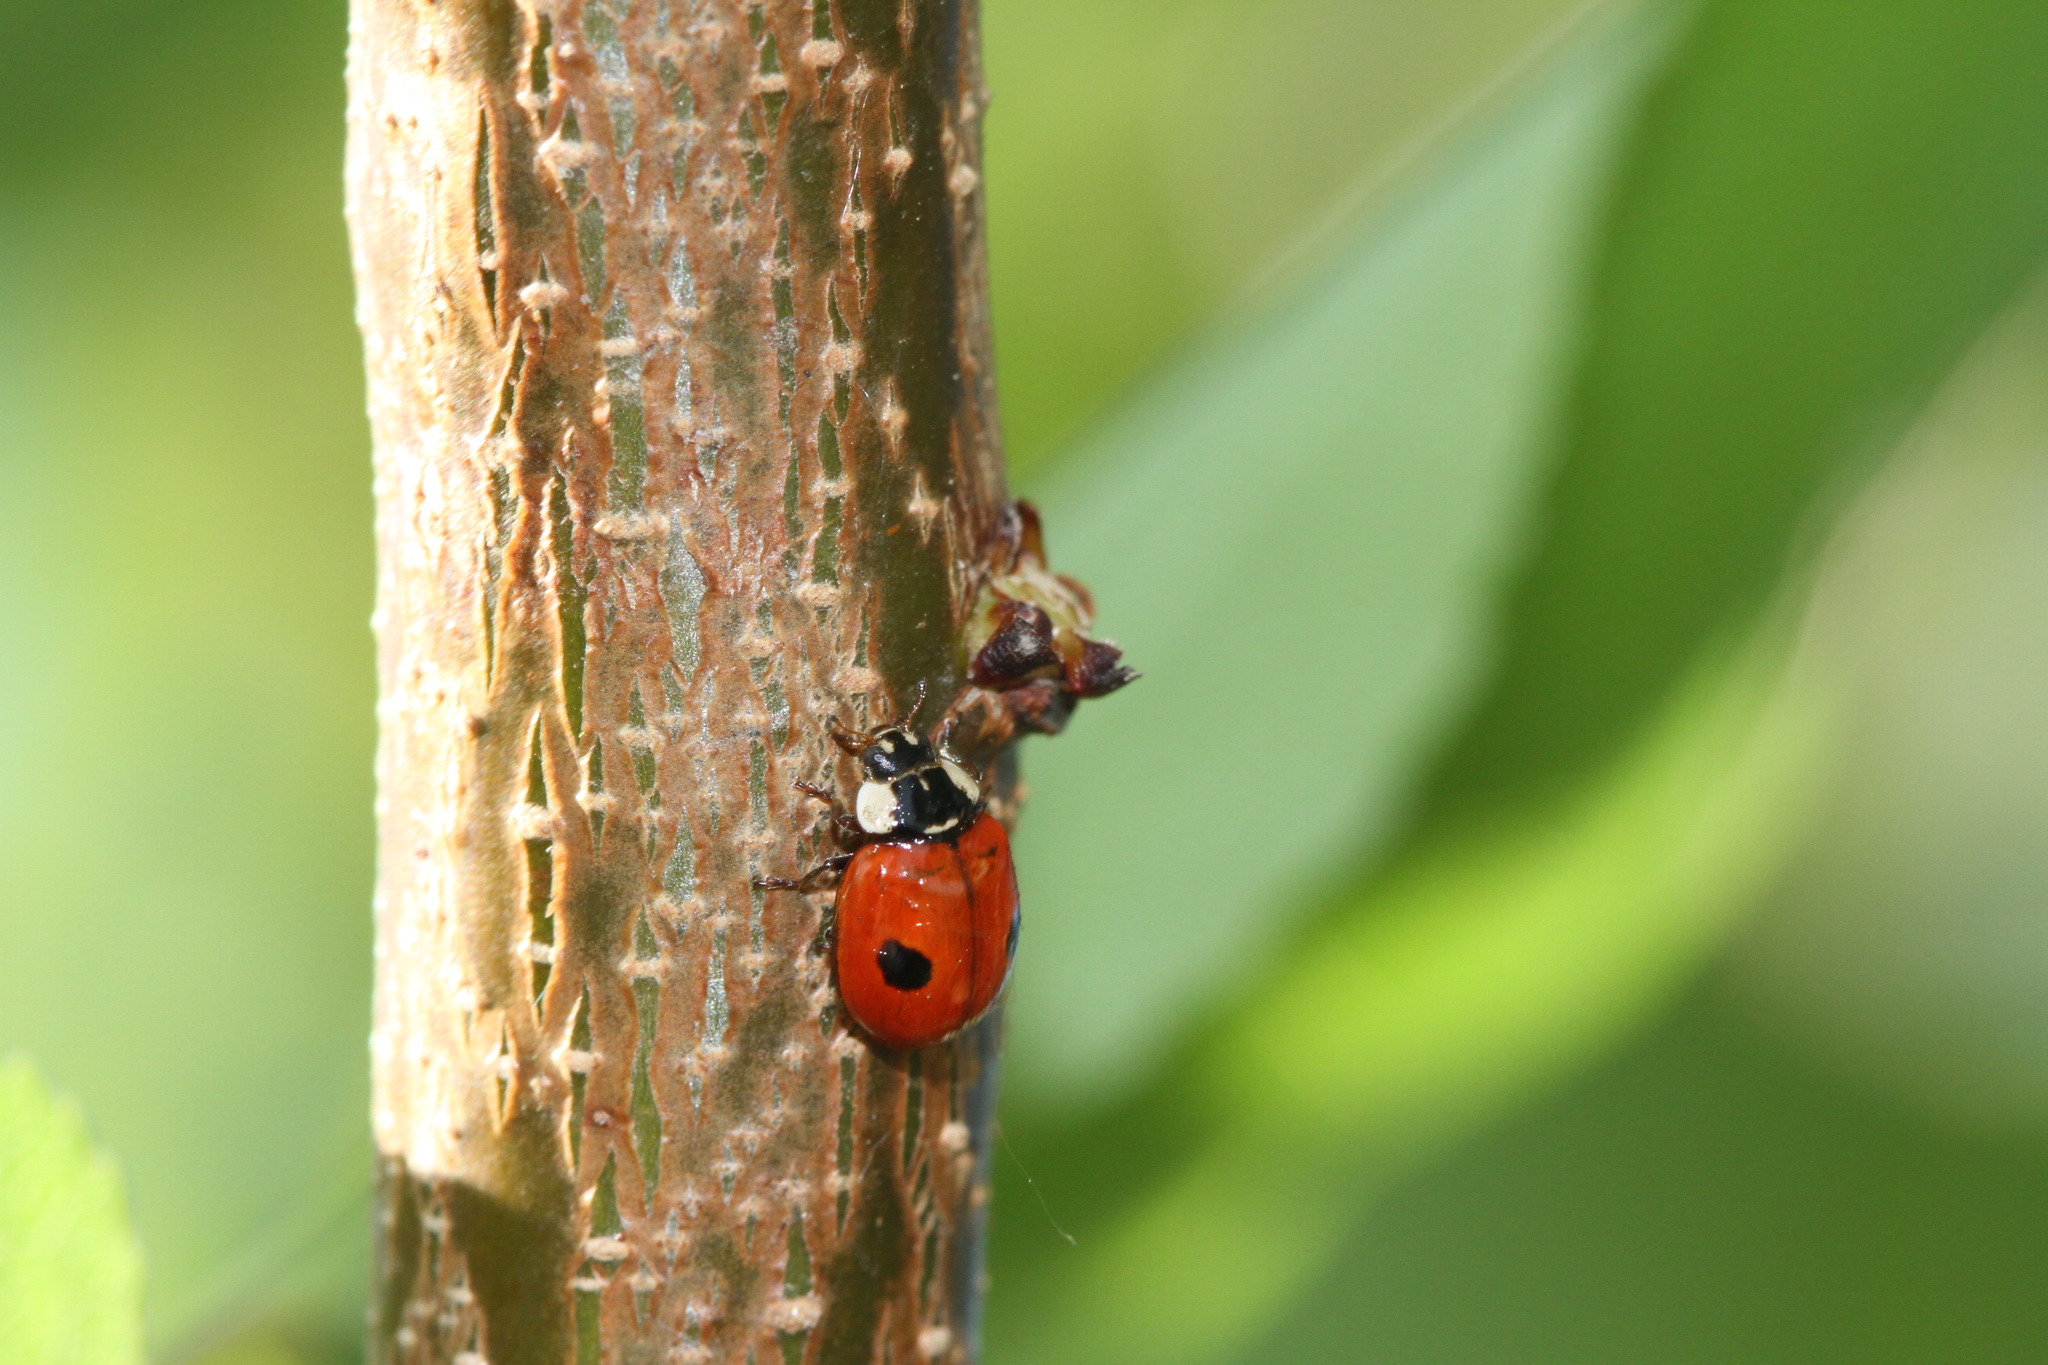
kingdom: Animalia
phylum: Arthropoda
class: Insecta
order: Coleoptera
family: Coccinellidae
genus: Adalia
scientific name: Adalia bipunctata
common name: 2-spot ladybird
